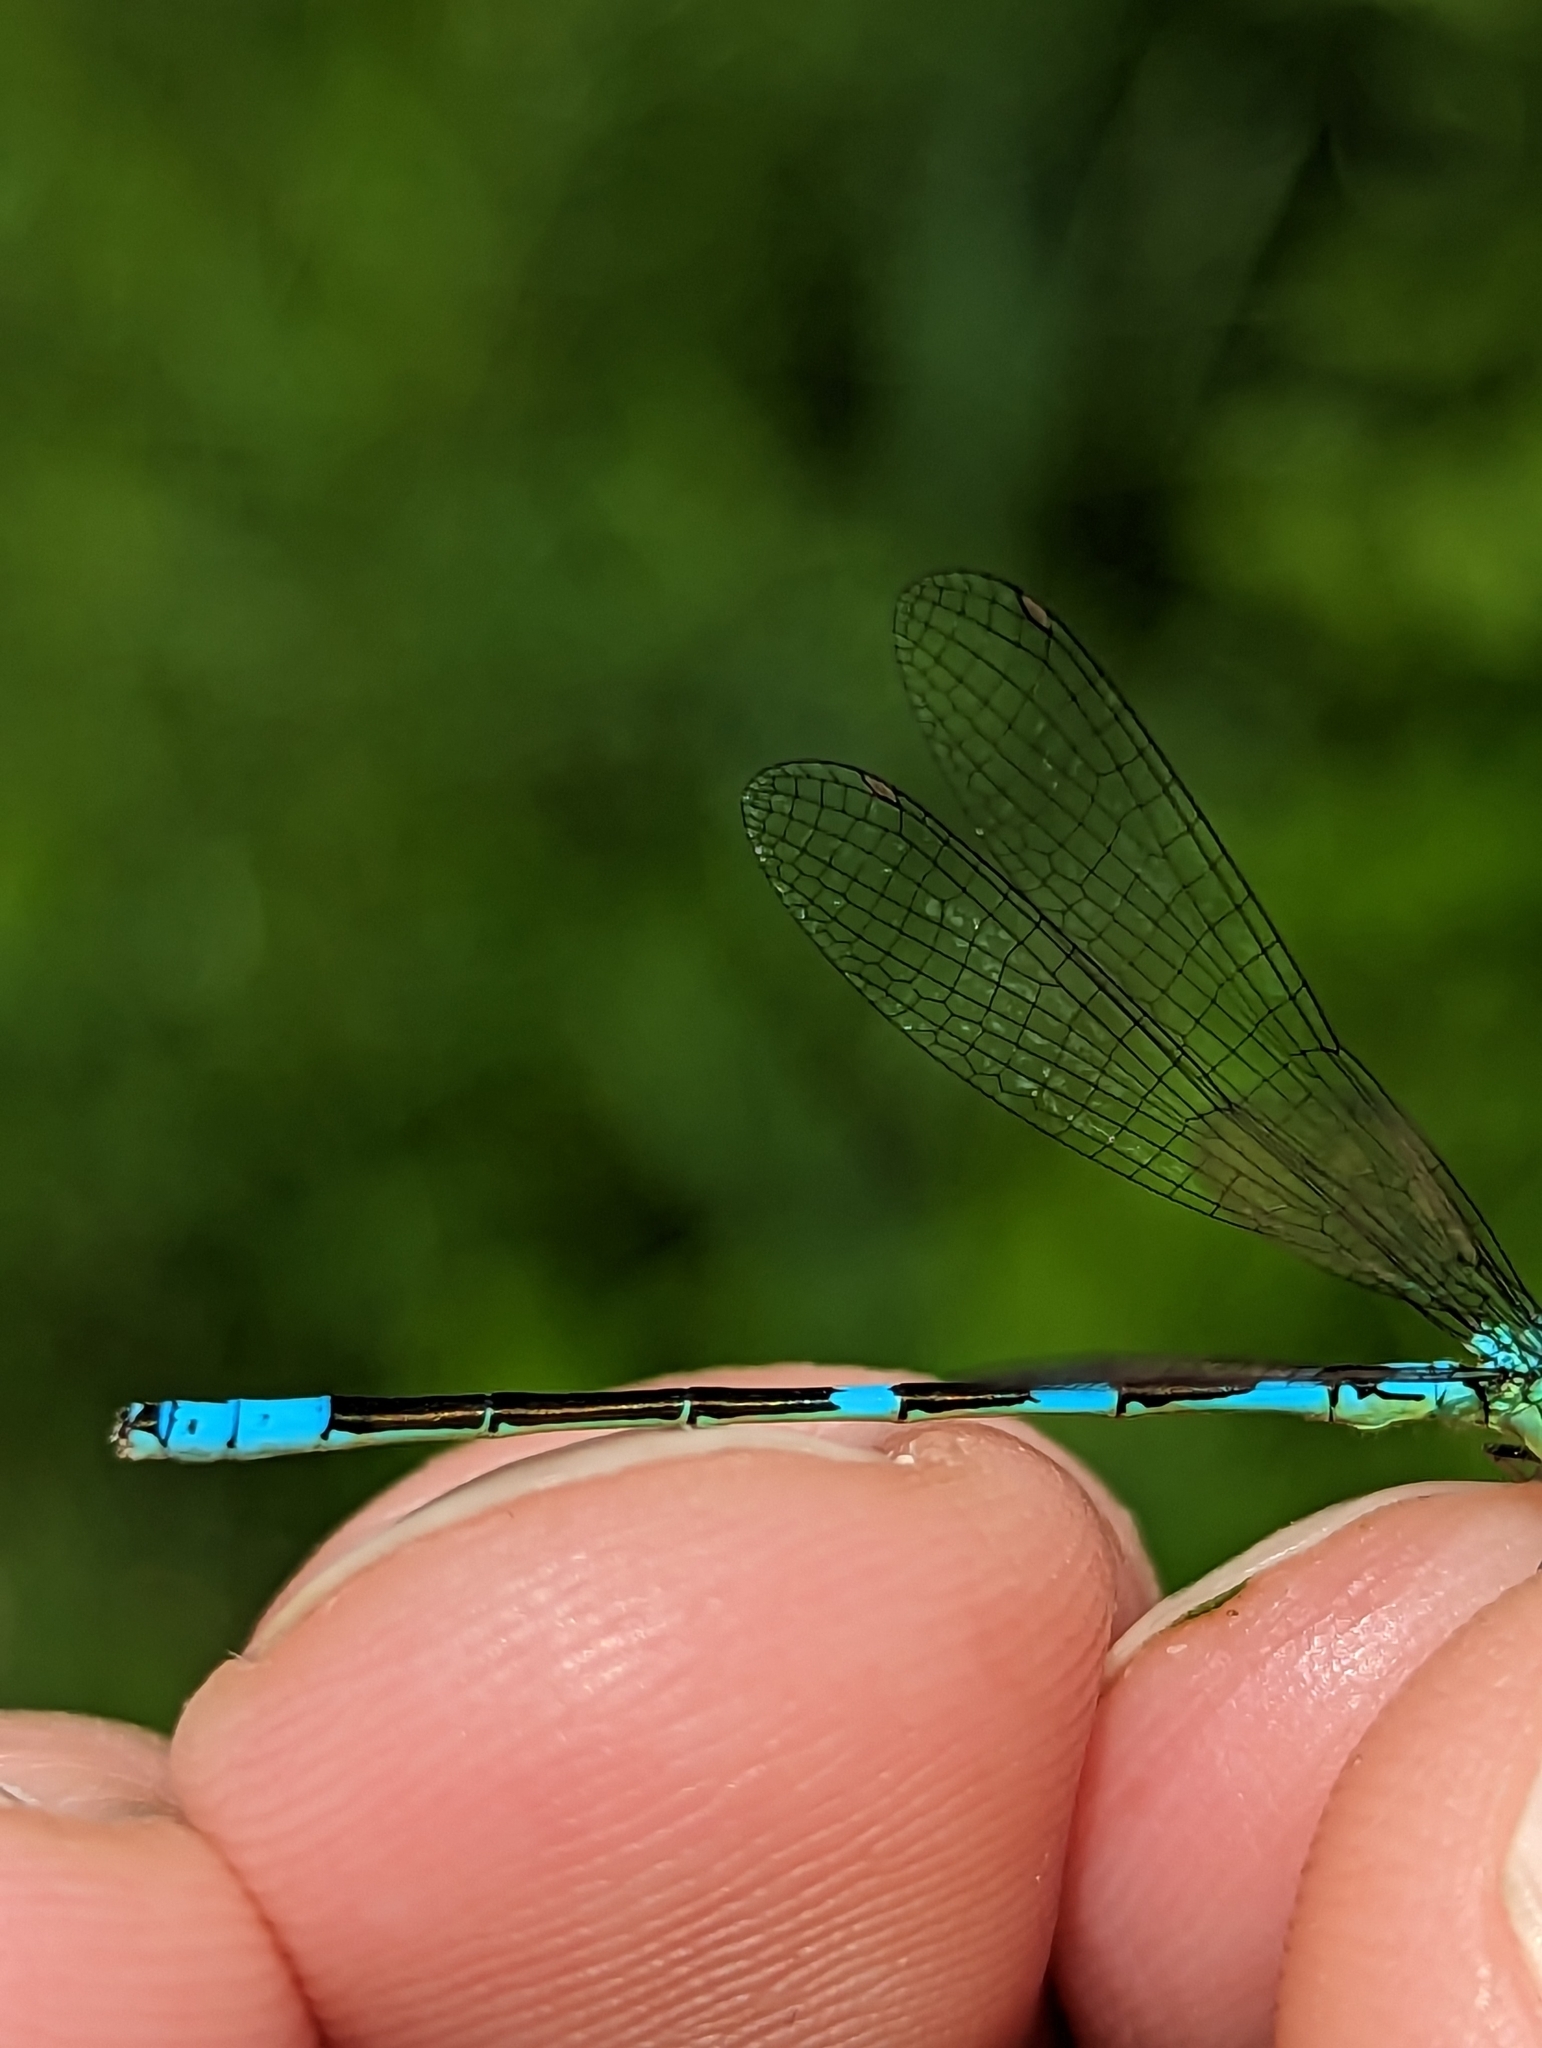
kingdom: Animalia
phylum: Arthropoda
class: Insecta
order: Odonata
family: Coenagrionidae
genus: Coenagrion
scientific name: Coenagrion resolutum
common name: Taiga bluet
